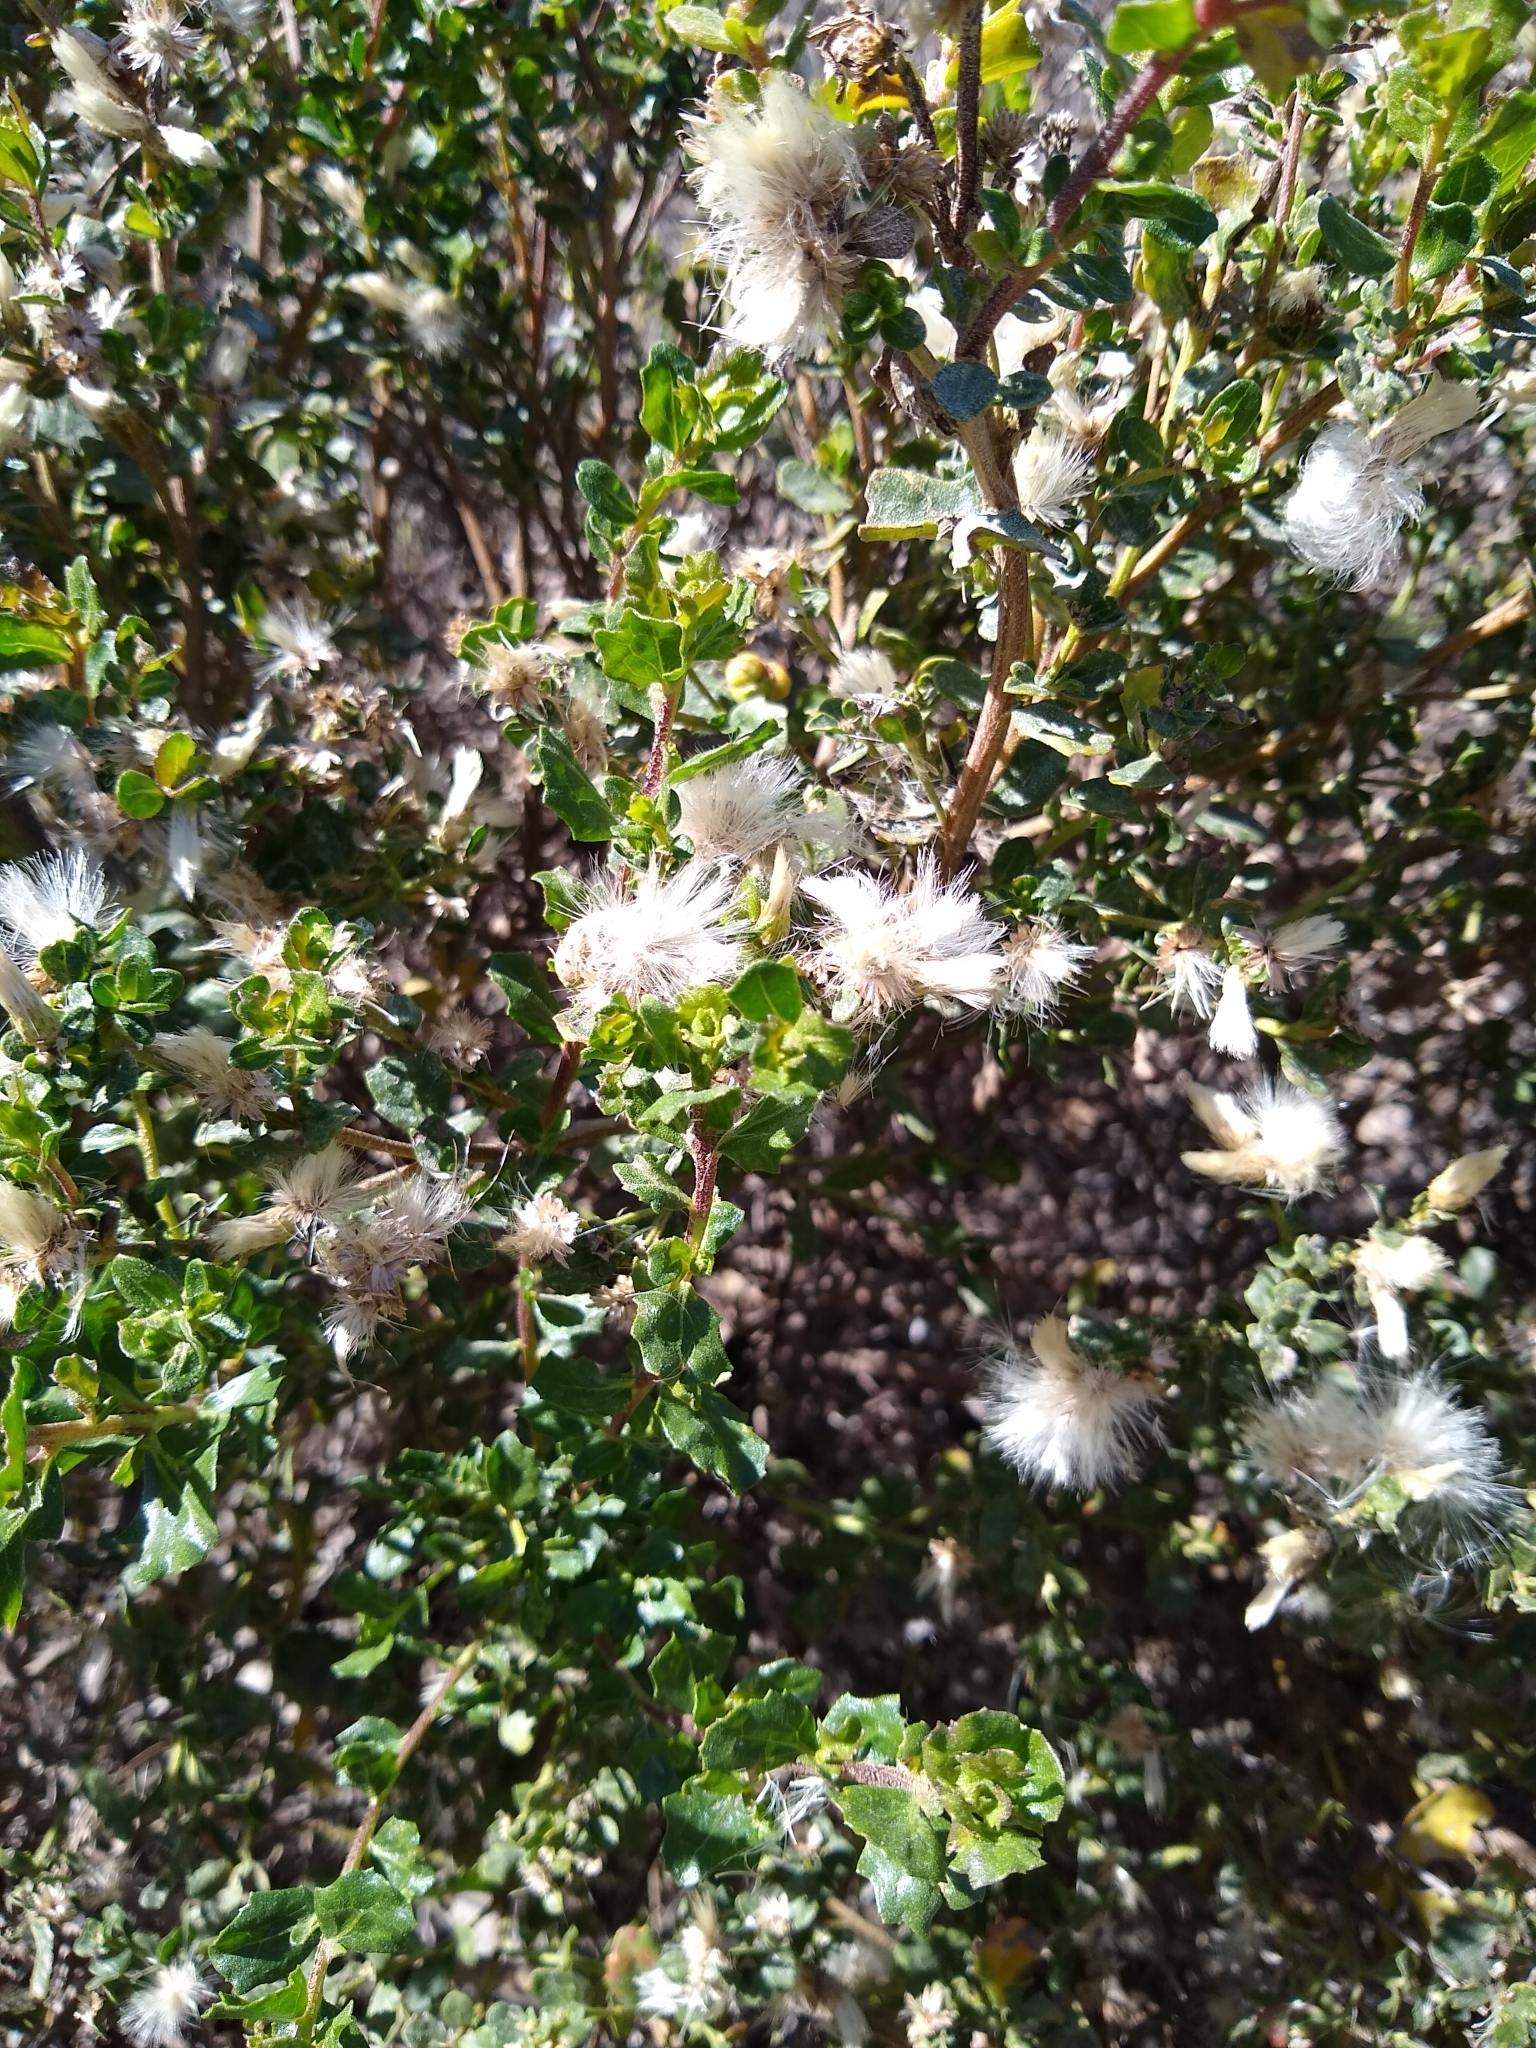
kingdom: Plantae
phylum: Tracheophyta
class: Magnoliopsida
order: Asterales
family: Asteraceae
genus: Baccharis
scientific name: Baccharis pilularis
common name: Coyotebrush
